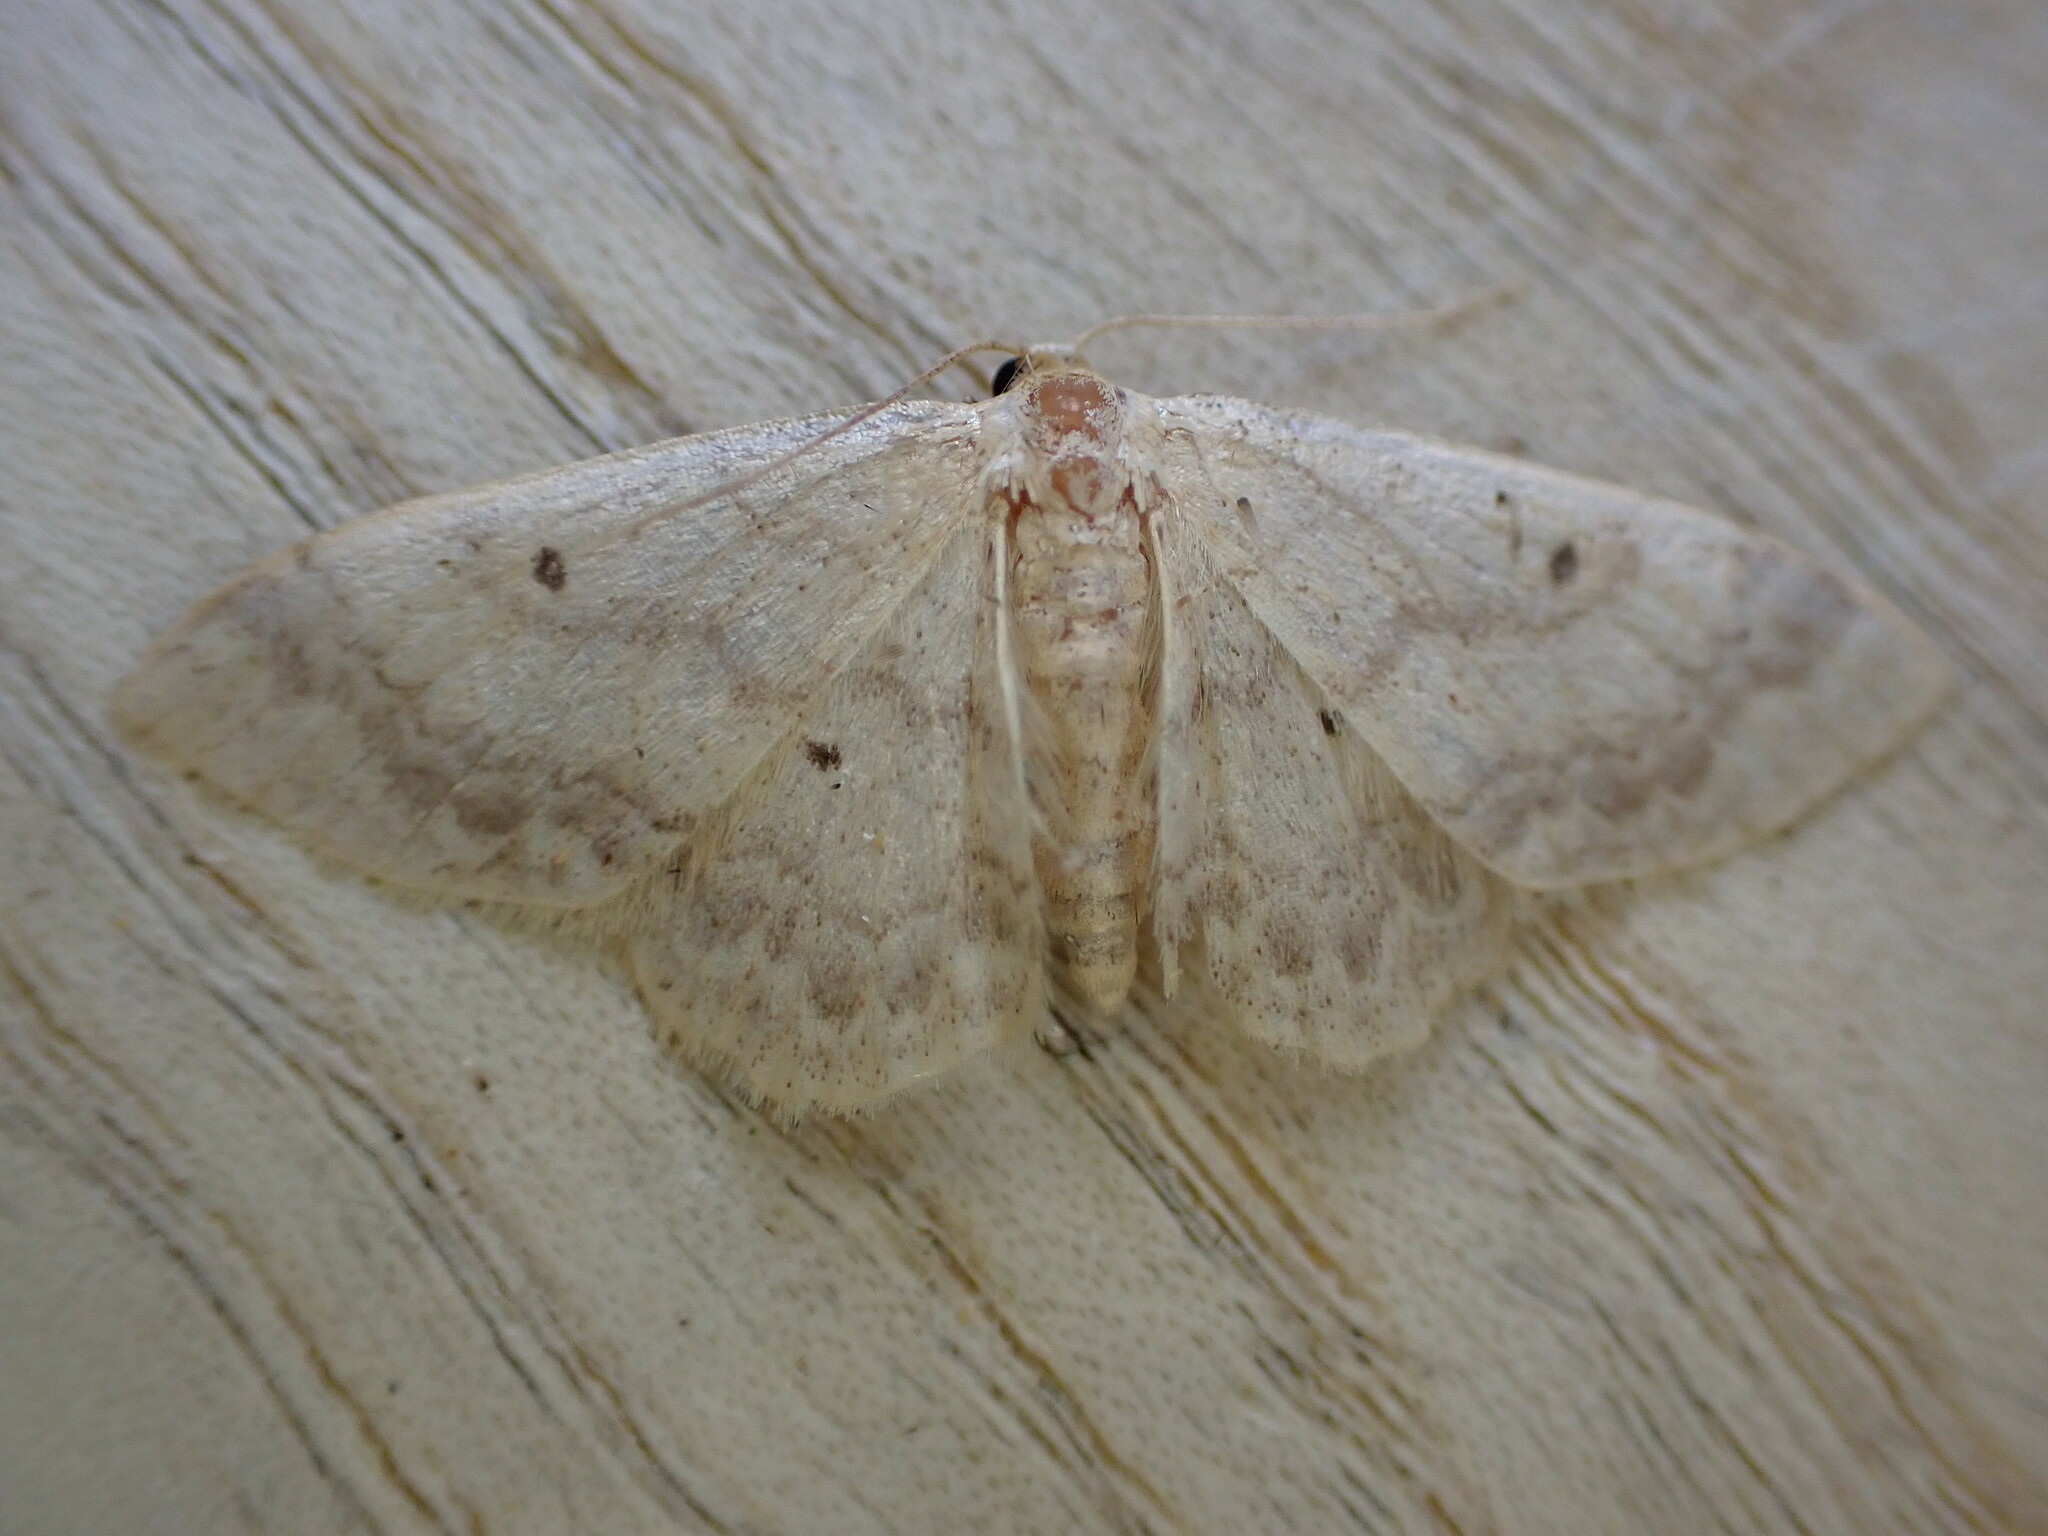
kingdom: Animalia
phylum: Arthropoda
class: Insecta
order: Lepidoptera
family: Geometridae
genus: Idaea
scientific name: Idaea biselata
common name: Small fan-footed wave
